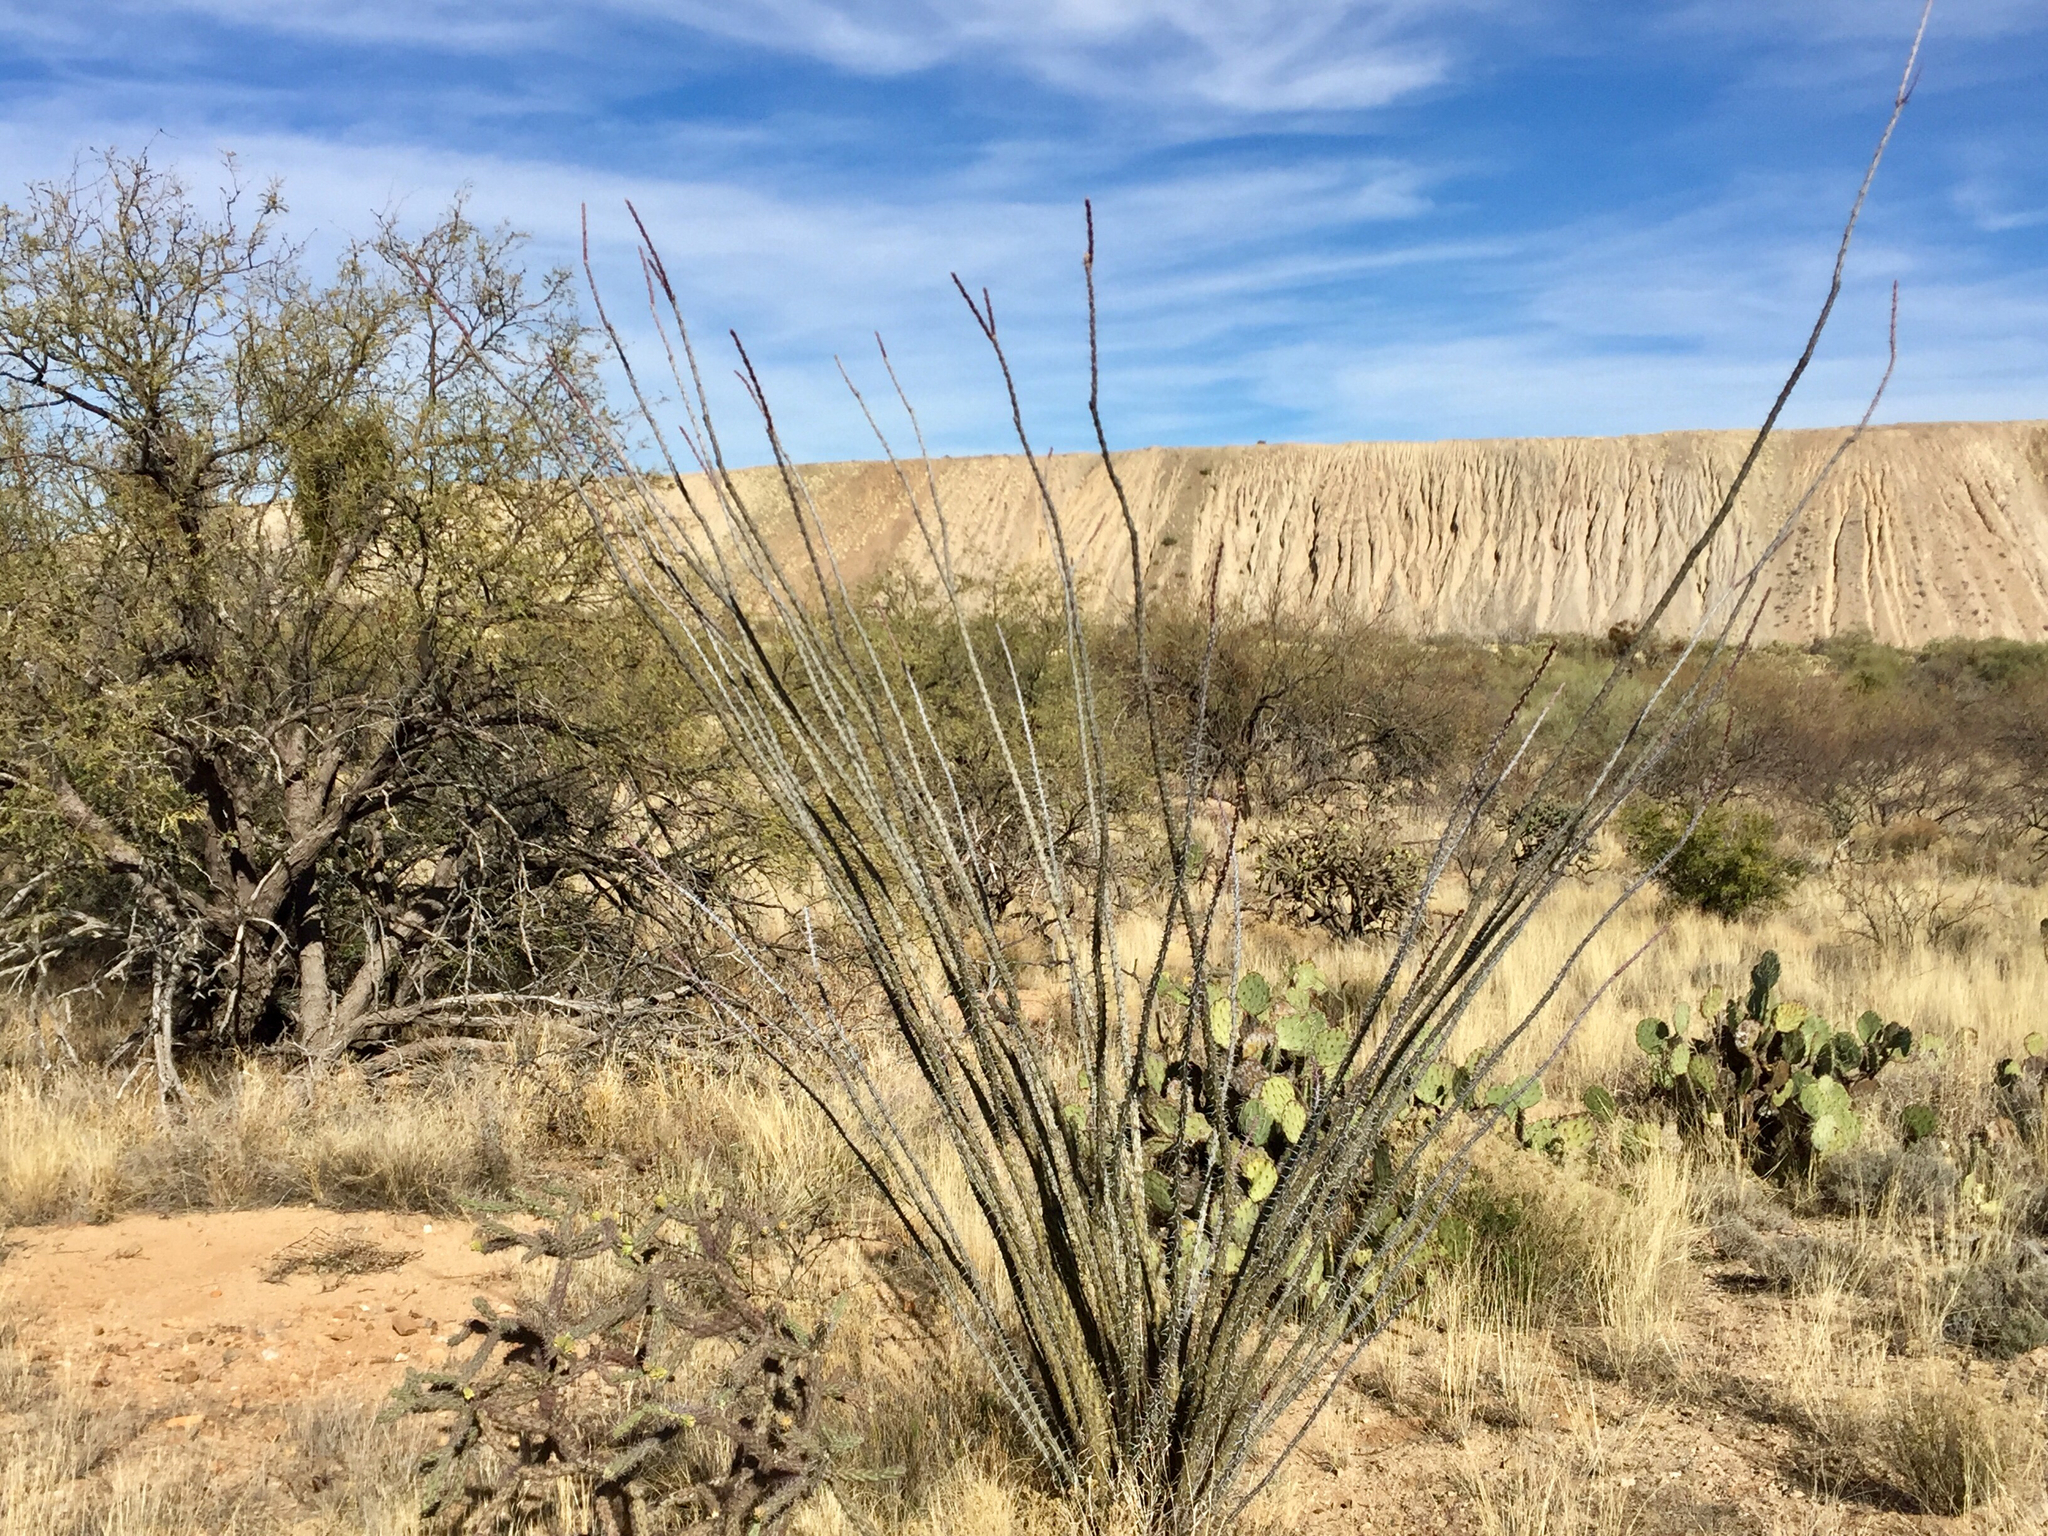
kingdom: Plantae
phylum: Tracheophyta
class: Magnoliopsida
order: Ericales
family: Fouquieriaceae
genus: Fouquieria
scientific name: Fouquieria splendens
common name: Vine-cactus
